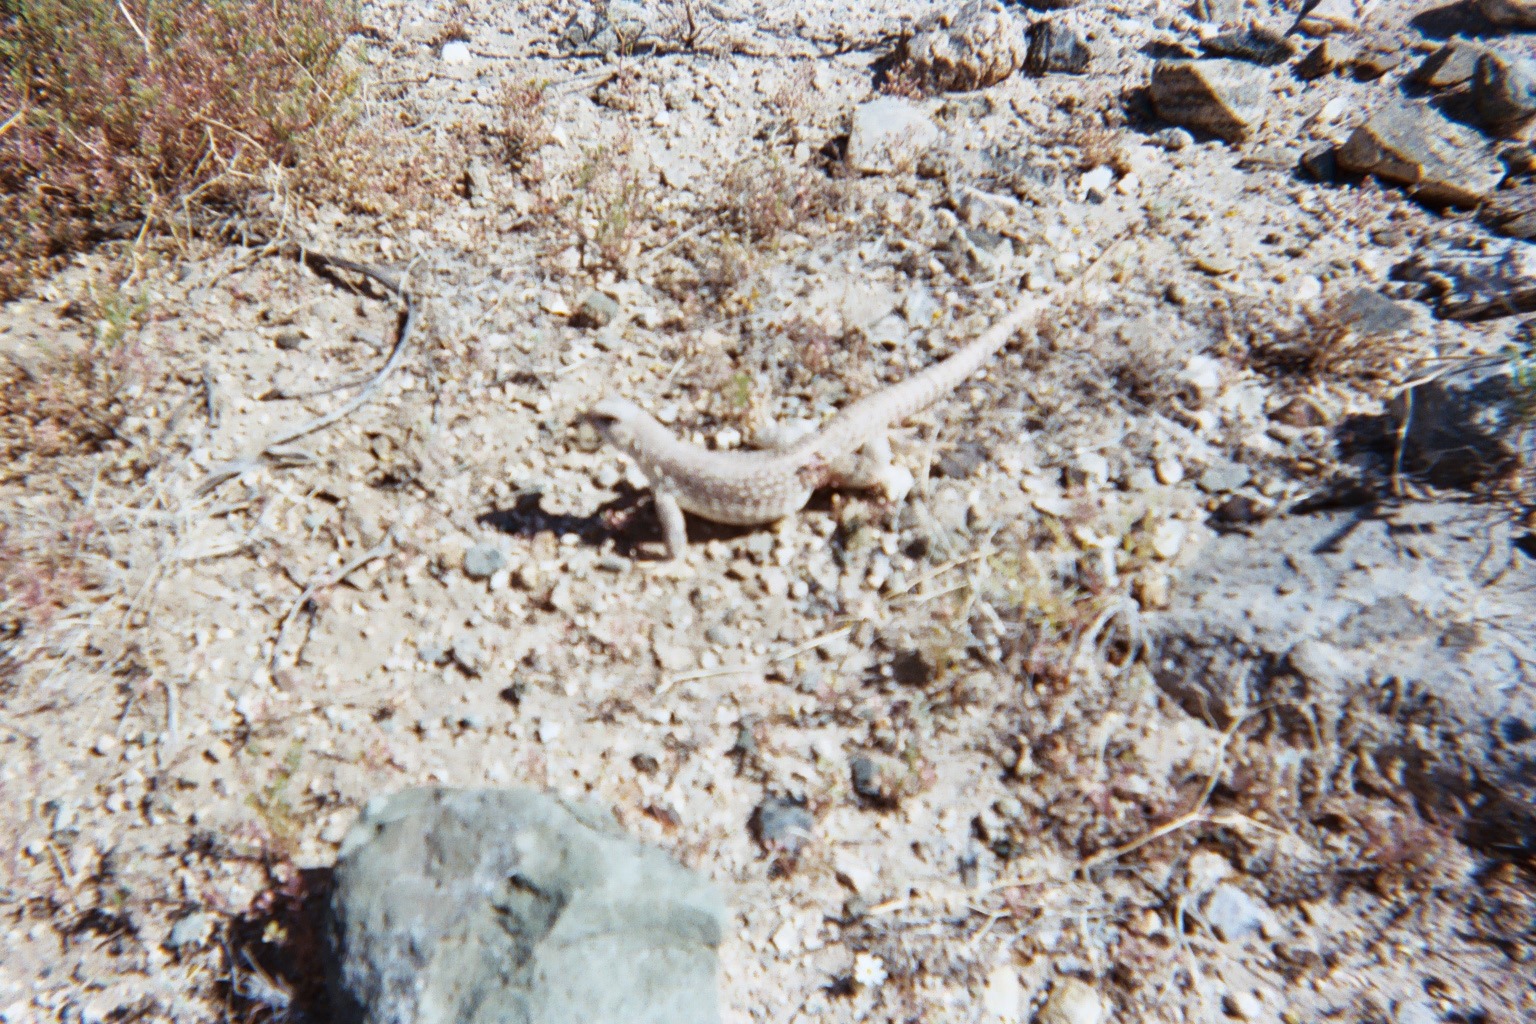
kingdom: Animalia
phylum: Chordata
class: Squamata
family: Iguanidae
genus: Dipsosaurus
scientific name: Dipsosaurus dorsalis
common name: Desert iguana
